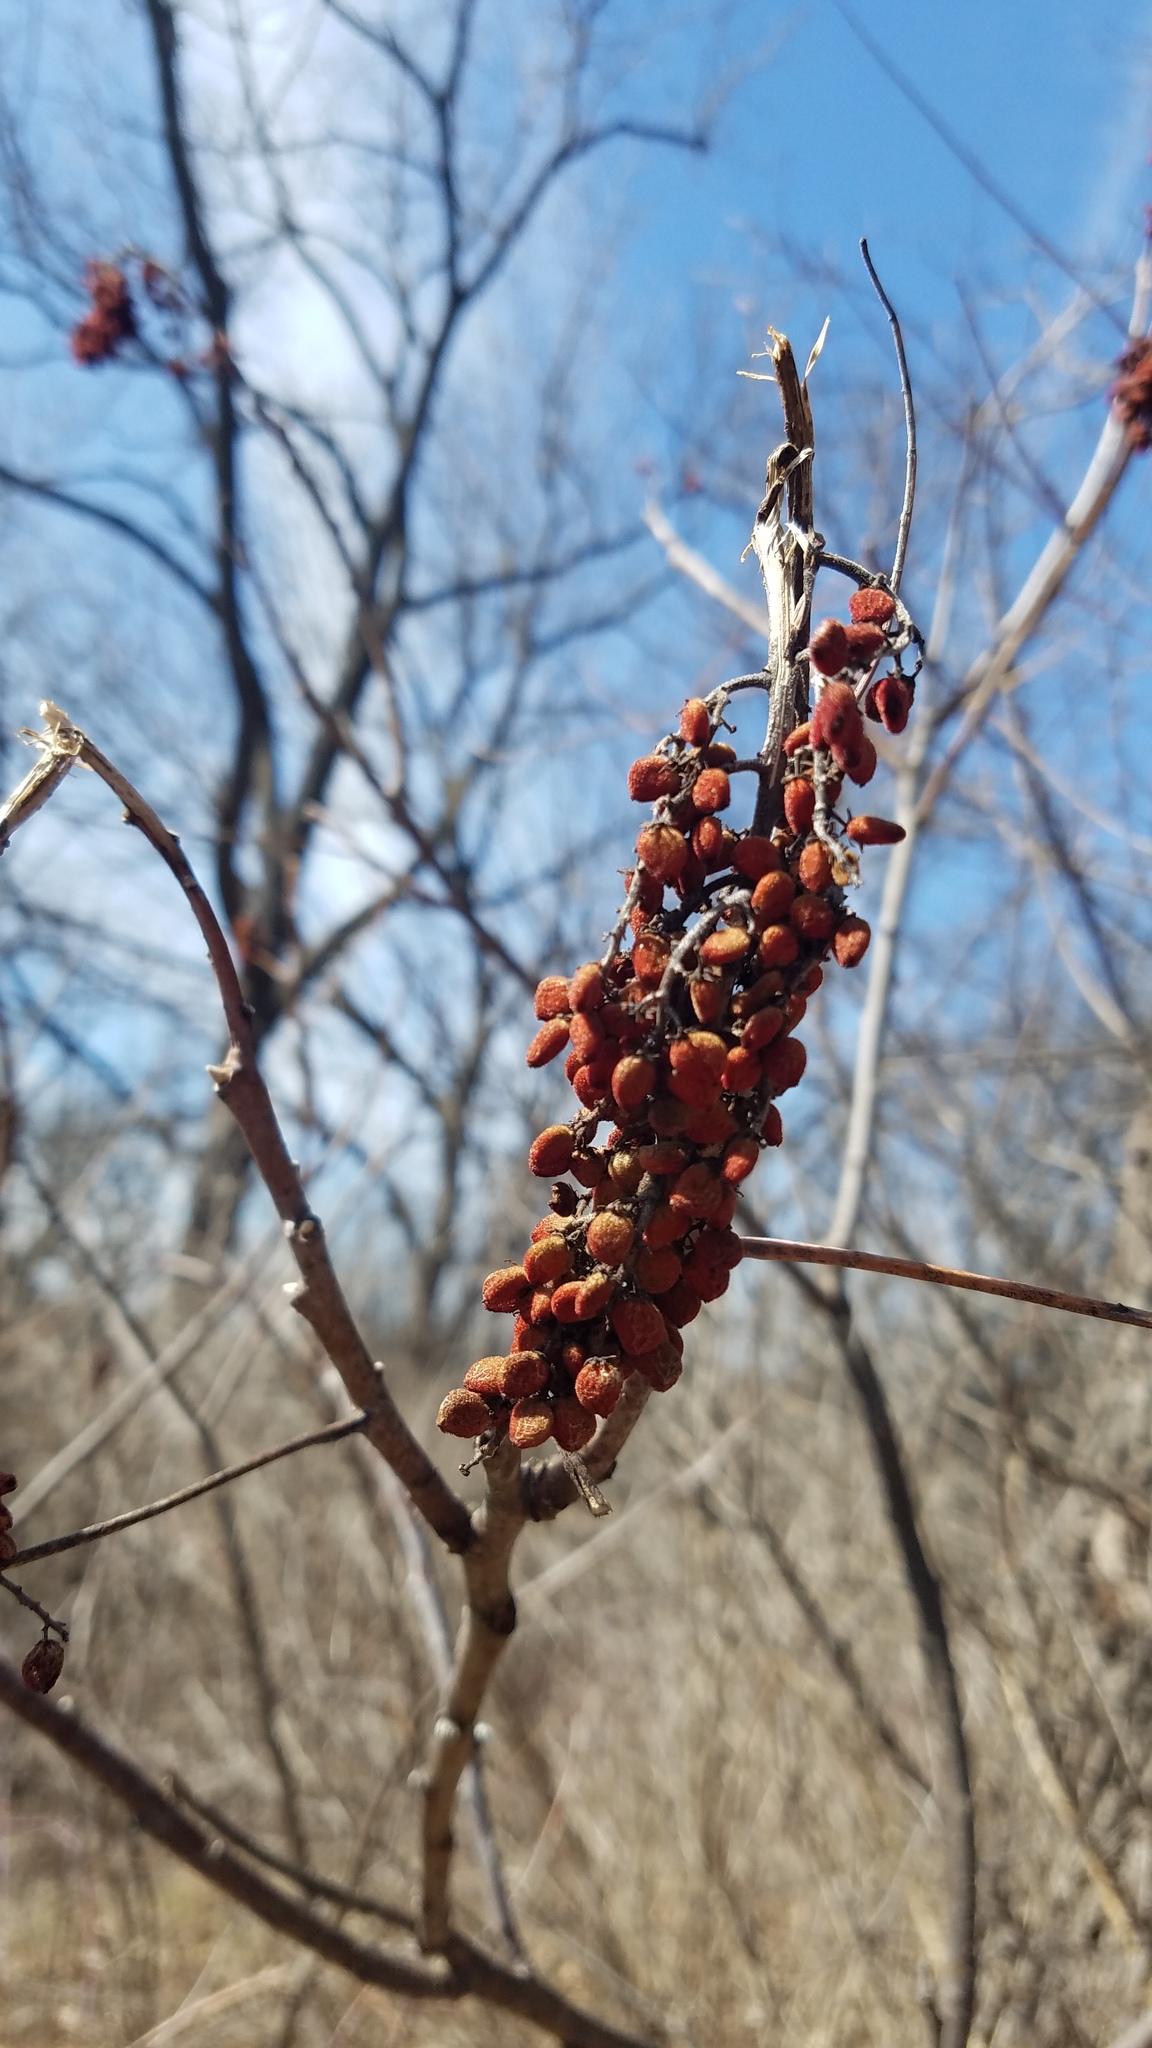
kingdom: Plantae
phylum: Tracheophyta
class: Magnoliopsida
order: Sapindales
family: Anacardiaceae
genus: Rhus
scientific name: Rhus glabra
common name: Scarlet sumac
